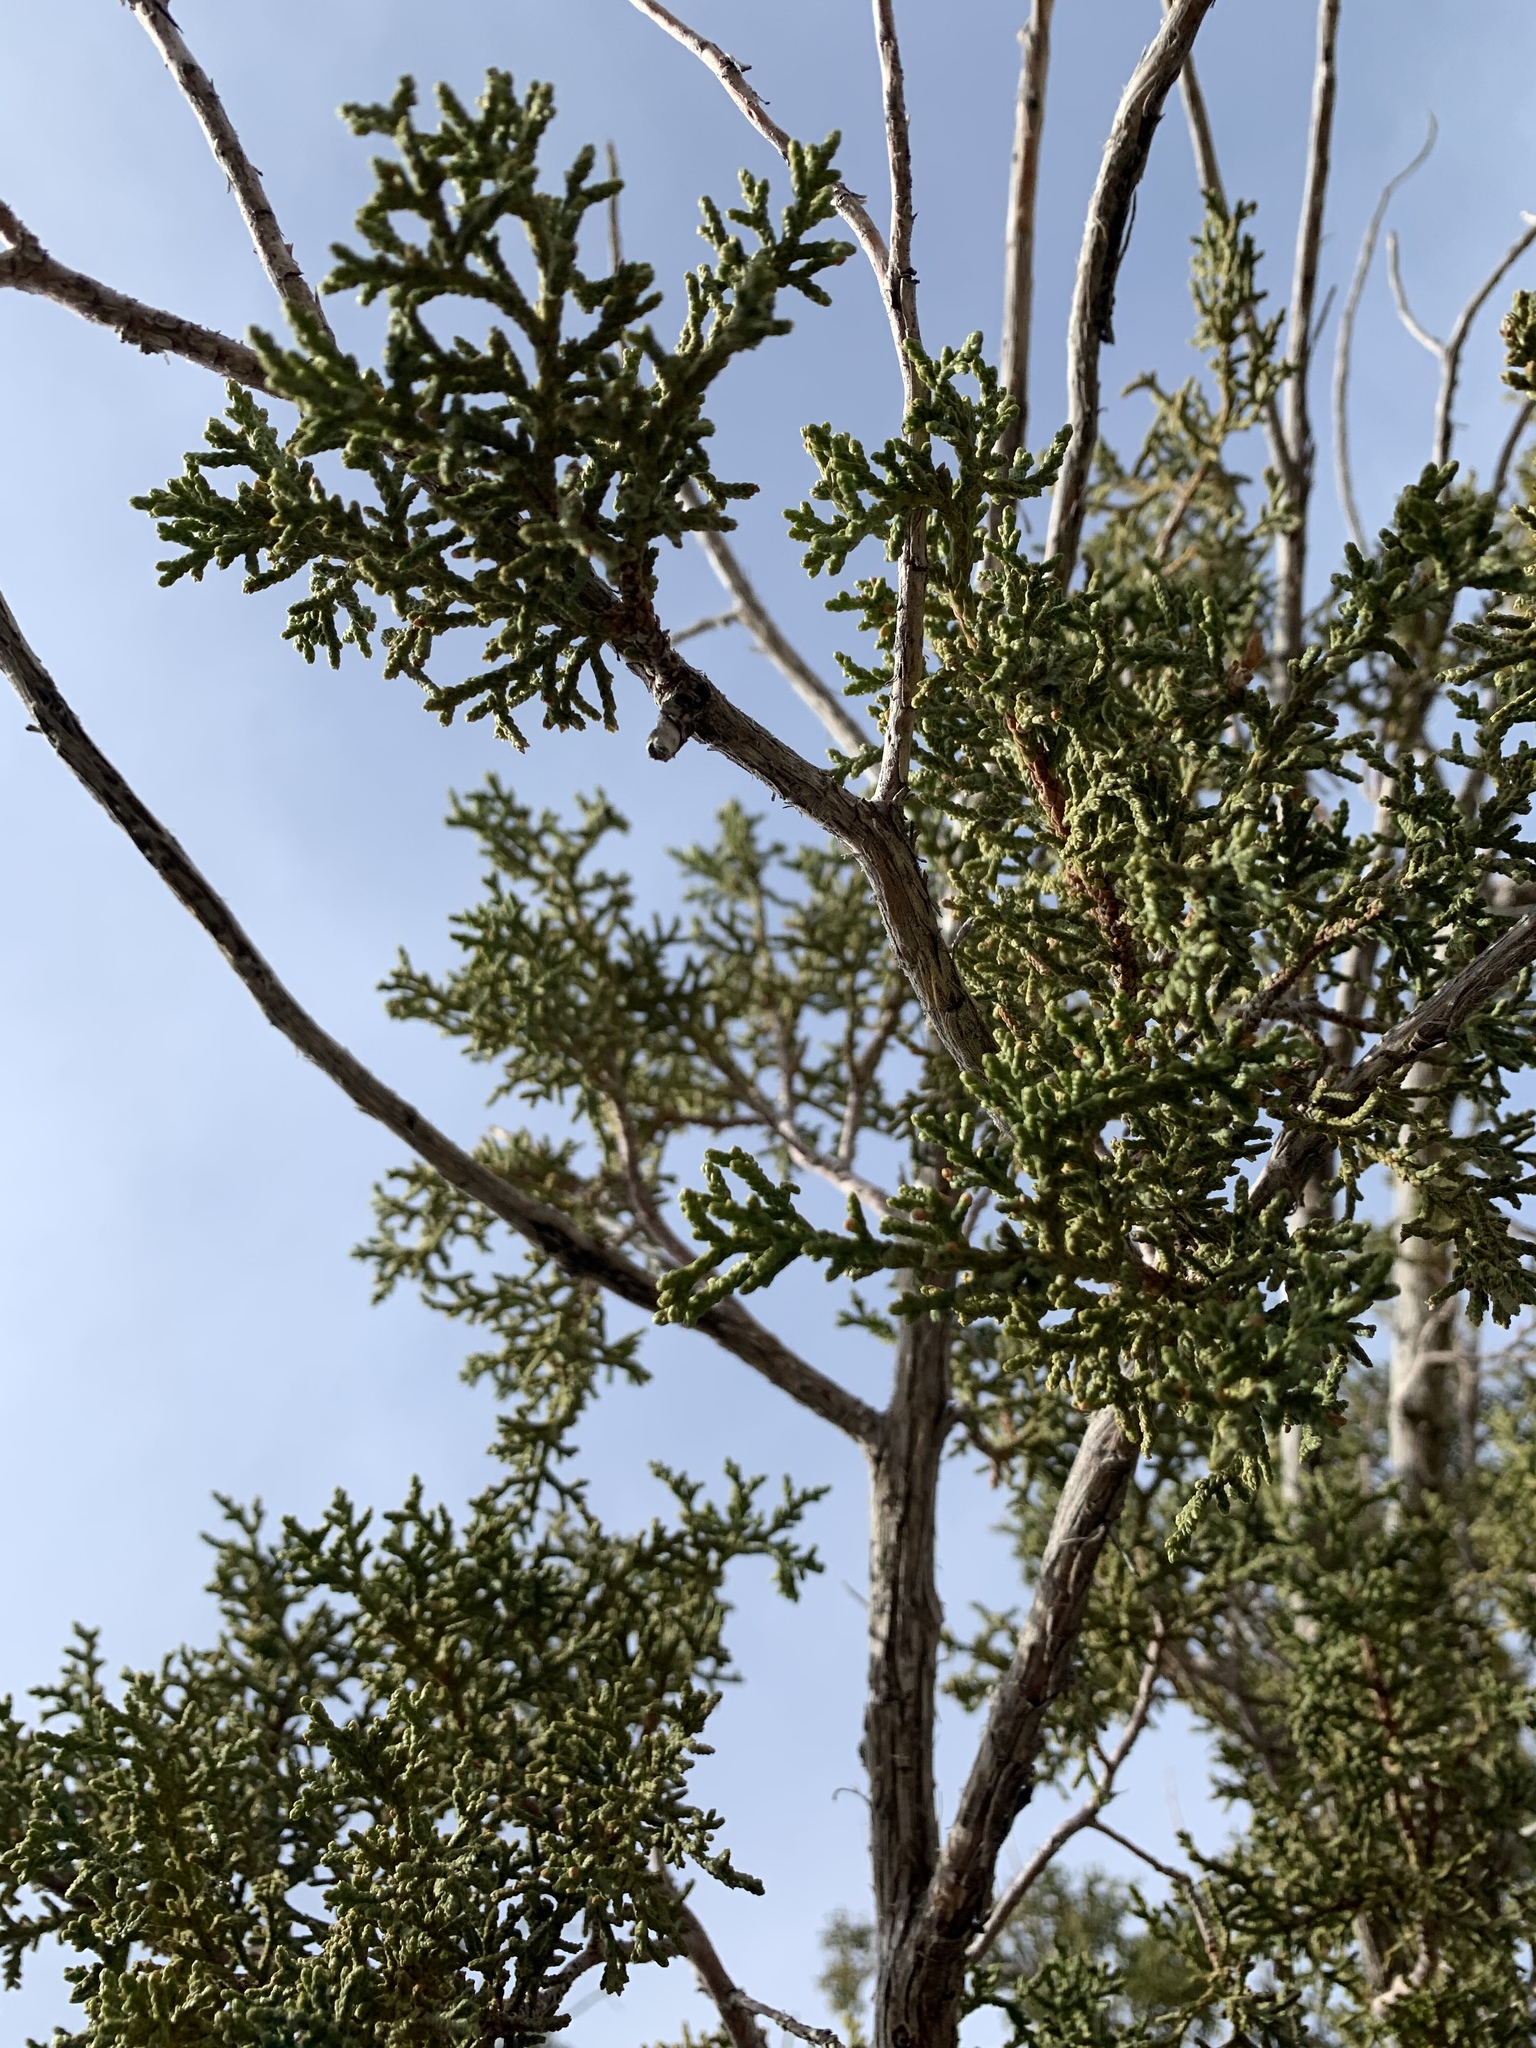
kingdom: Plantae
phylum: Tracheophyta
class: Pinopsida
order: Pinales
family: Cupressaceae
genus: Juniperus
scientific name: Juniperus monosperma
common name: One-seed juniper
